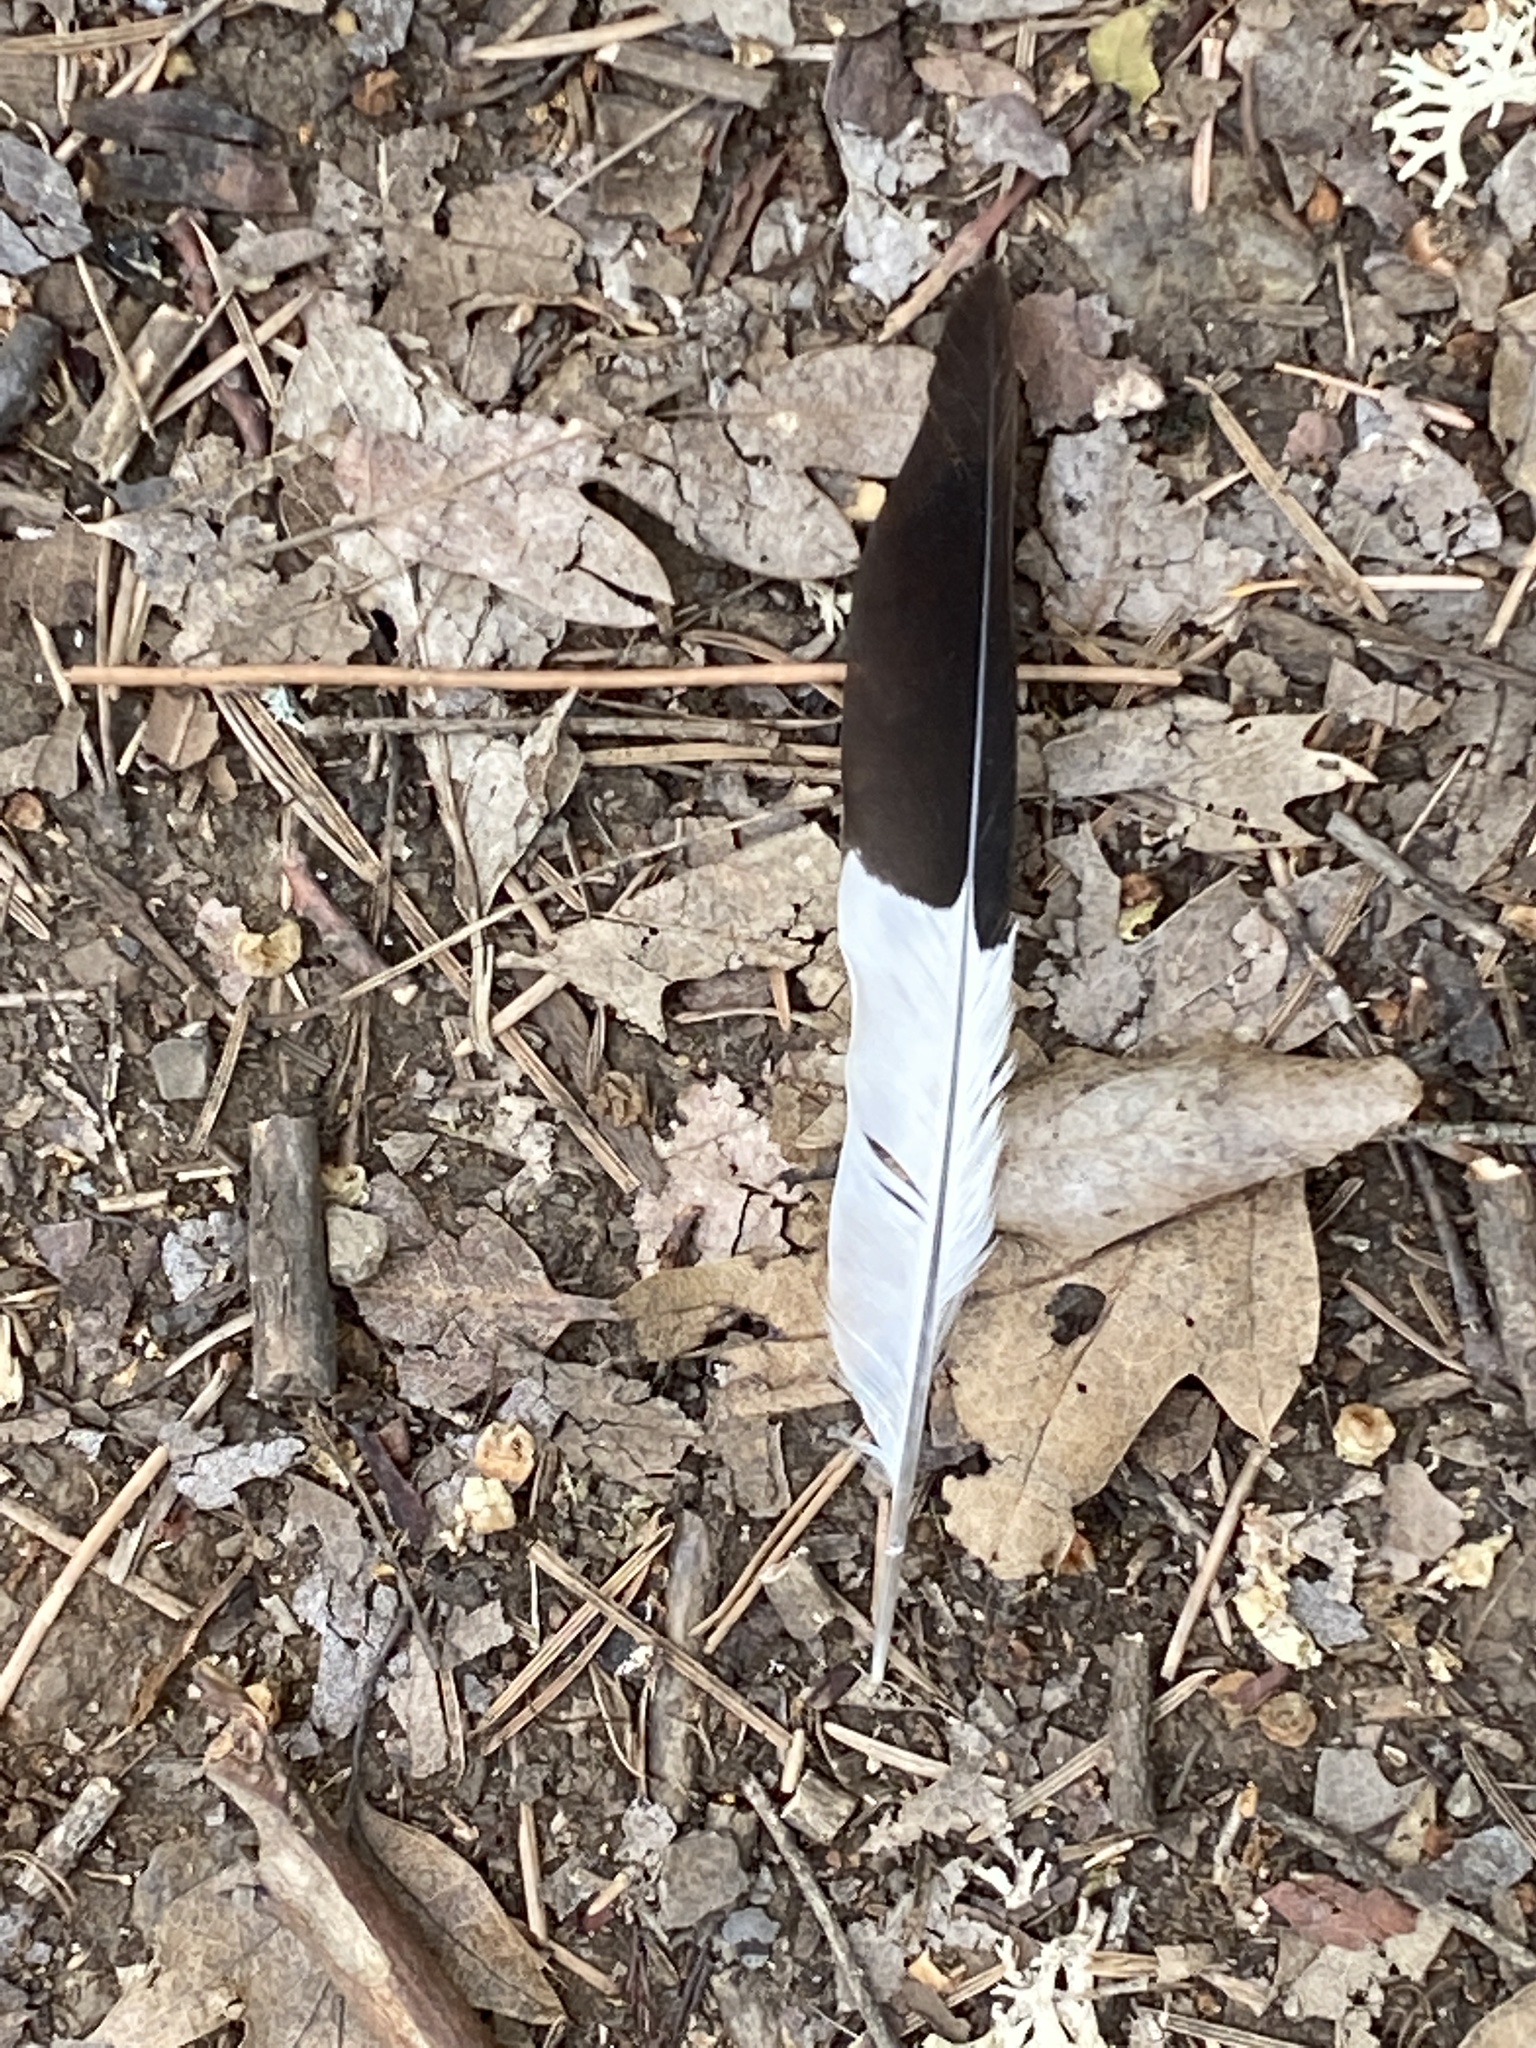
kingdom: Animalia
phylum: Chordata
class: Aves
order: Piciformes
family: Picidae
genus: Melanerpes
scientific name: Melanerpes formicivorus
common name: Acorn woodpecker
